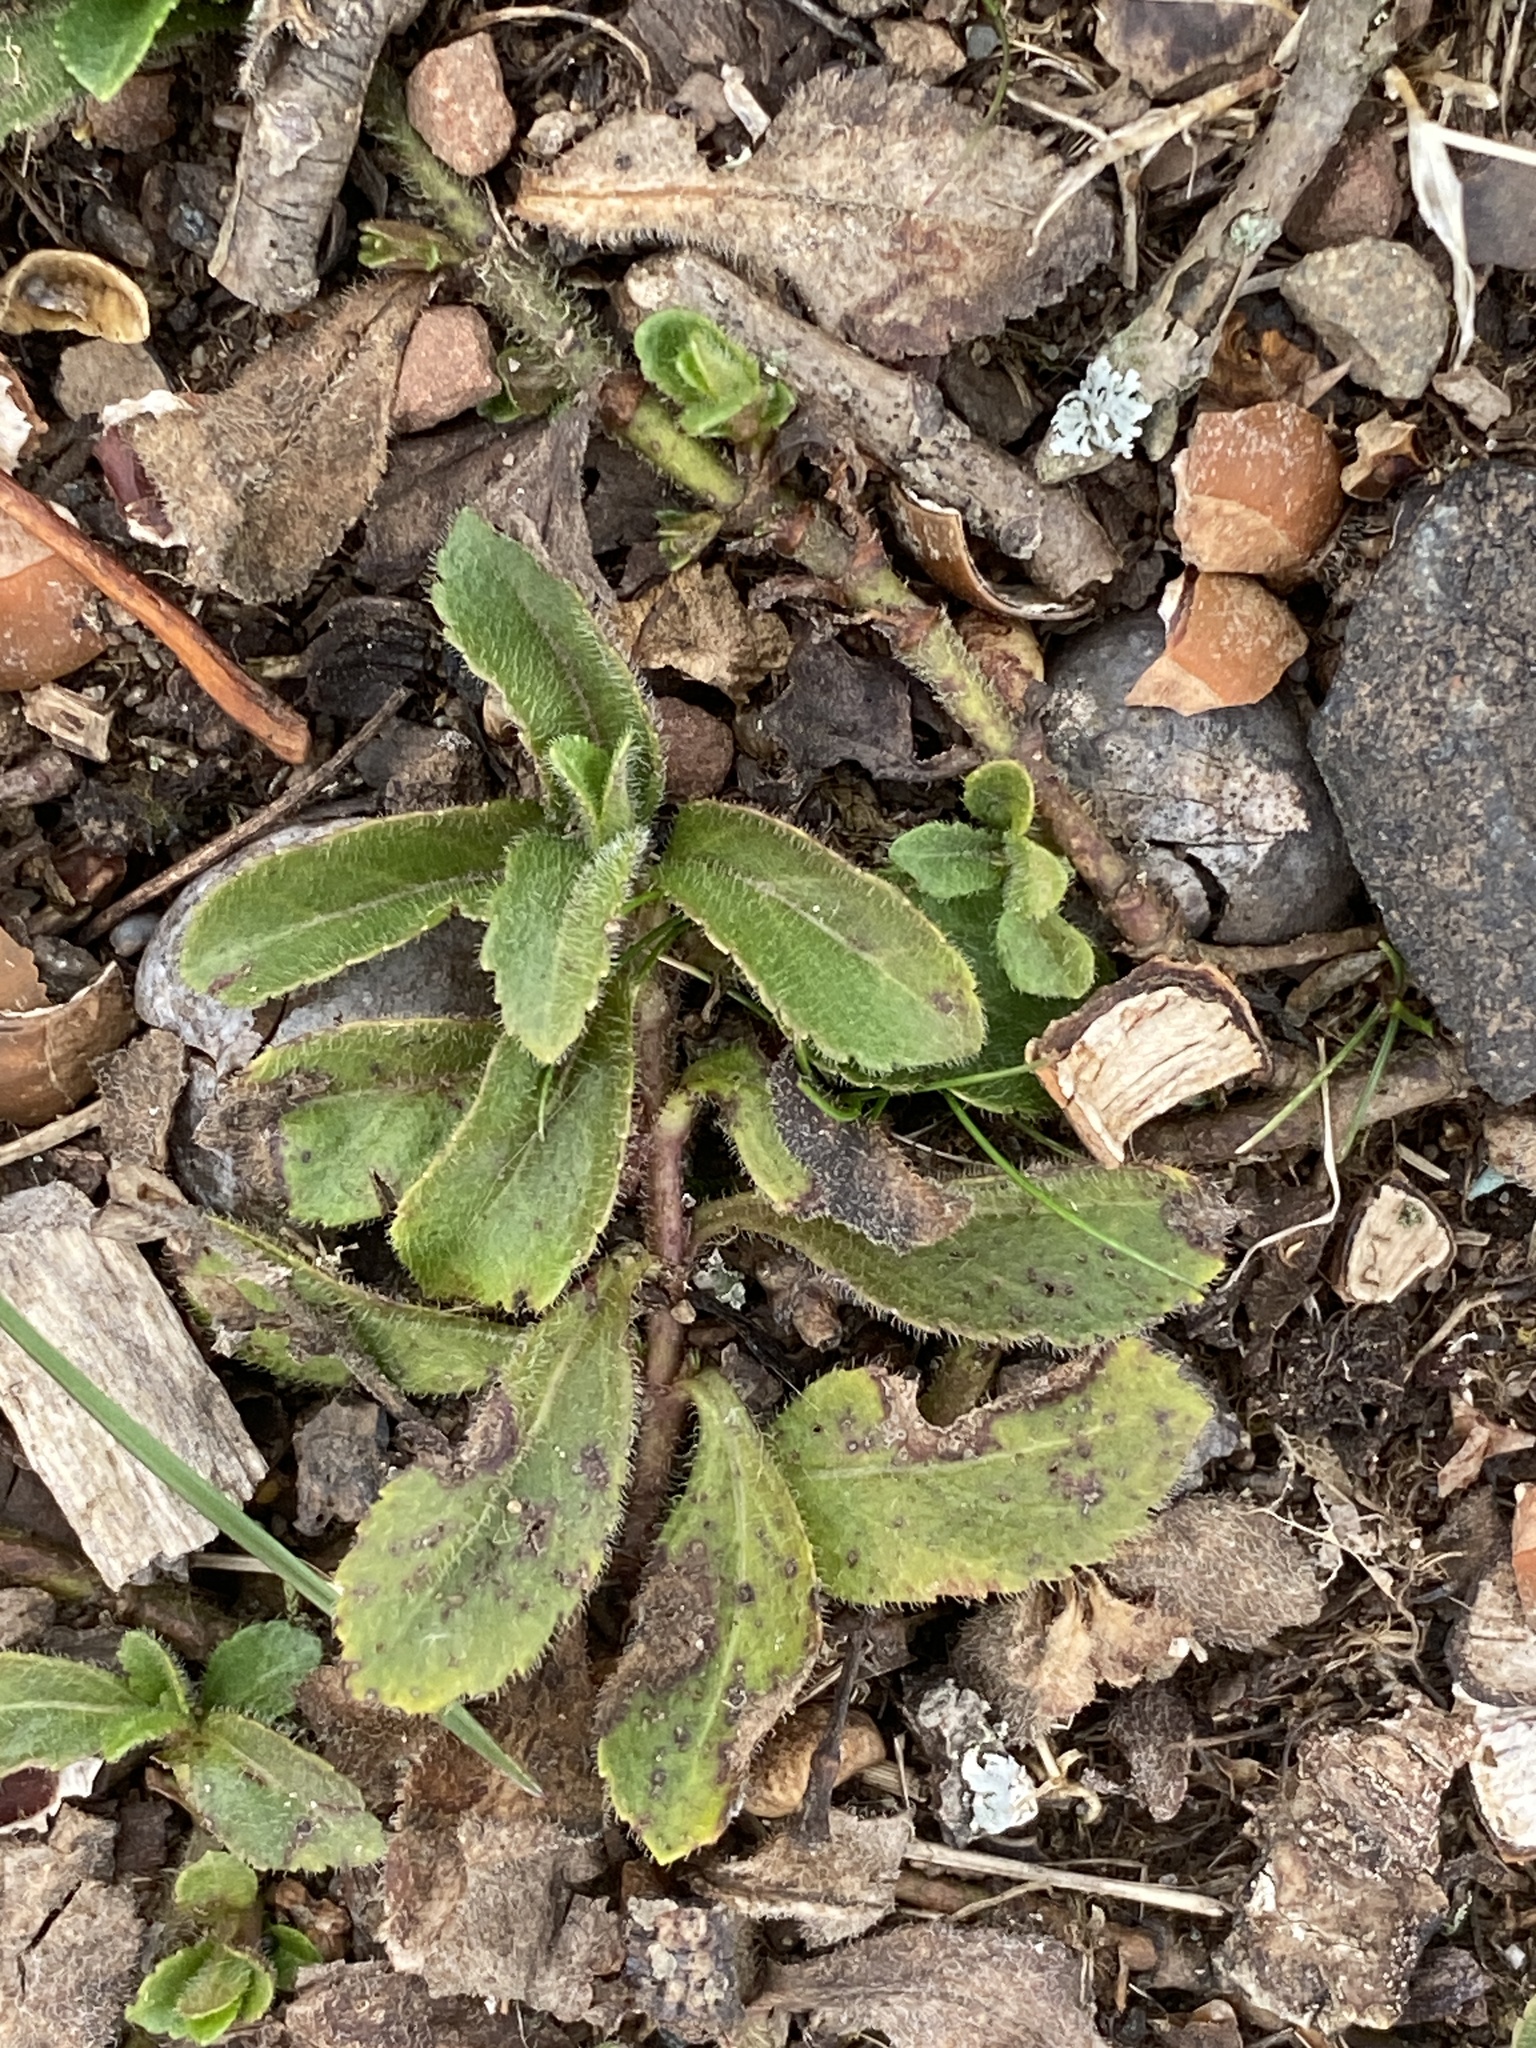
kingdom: Plantae
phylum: Tracheophyta
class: Magnoliopsida
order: Lamiales
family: Plantaginaceae
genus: Veronica
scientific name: Veronica officinalis
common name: Common speedwell
